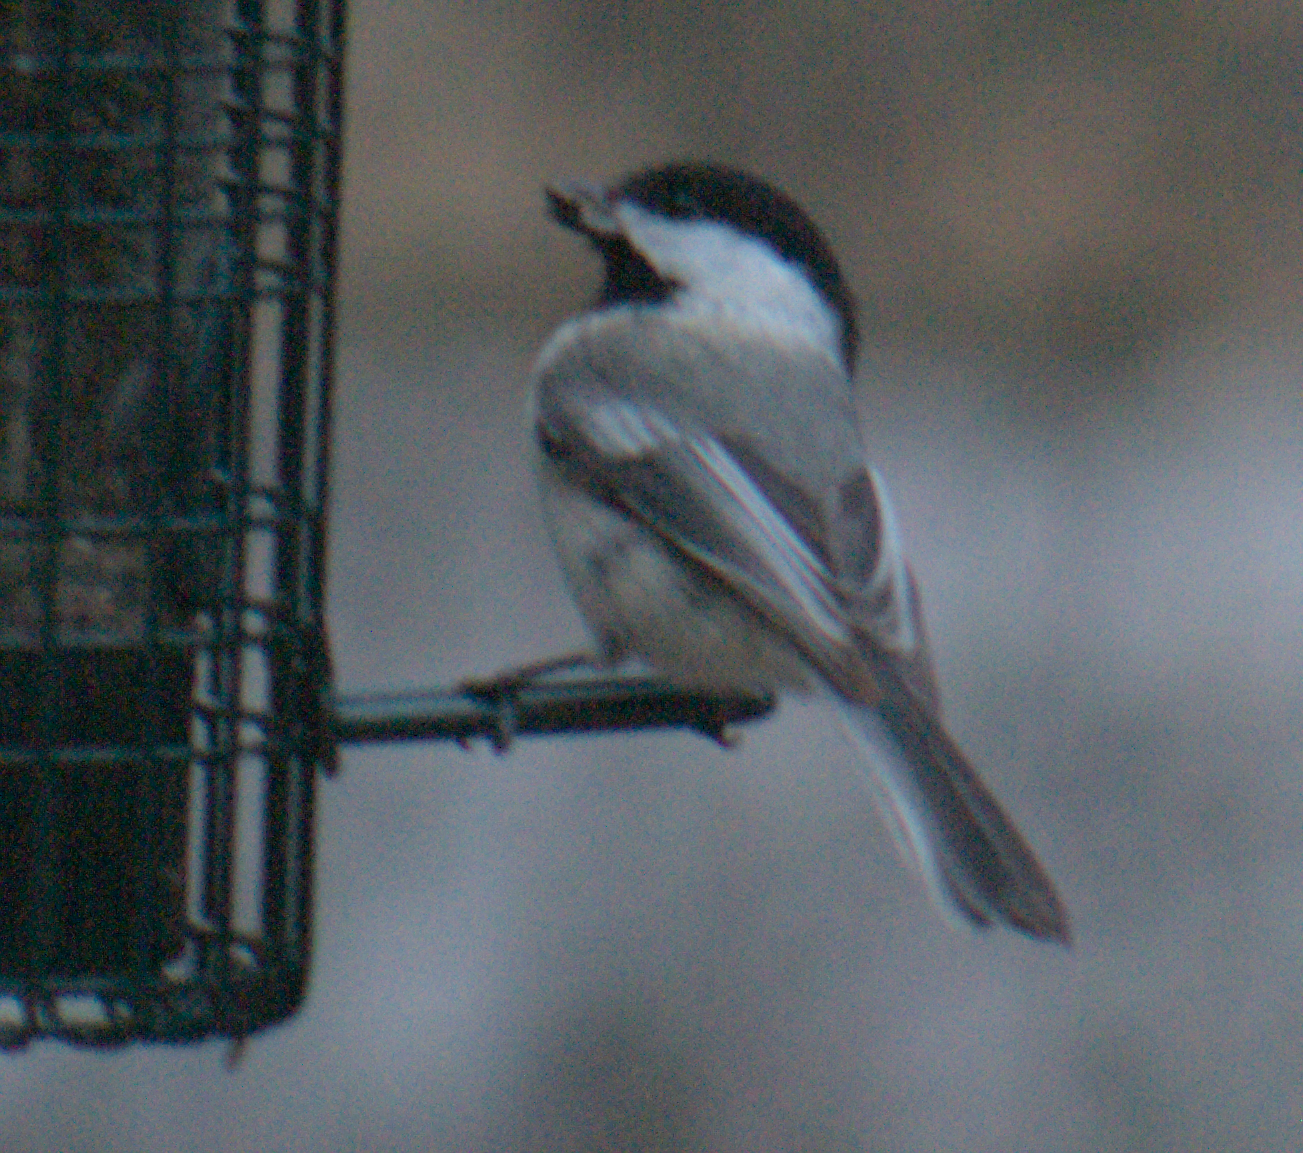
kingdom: Animalia
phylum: Chordata
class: Aves
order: Passeriformes
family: Paridae
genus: Poecile
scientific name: Poecile atricapillus
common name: Black-capped chickadee
